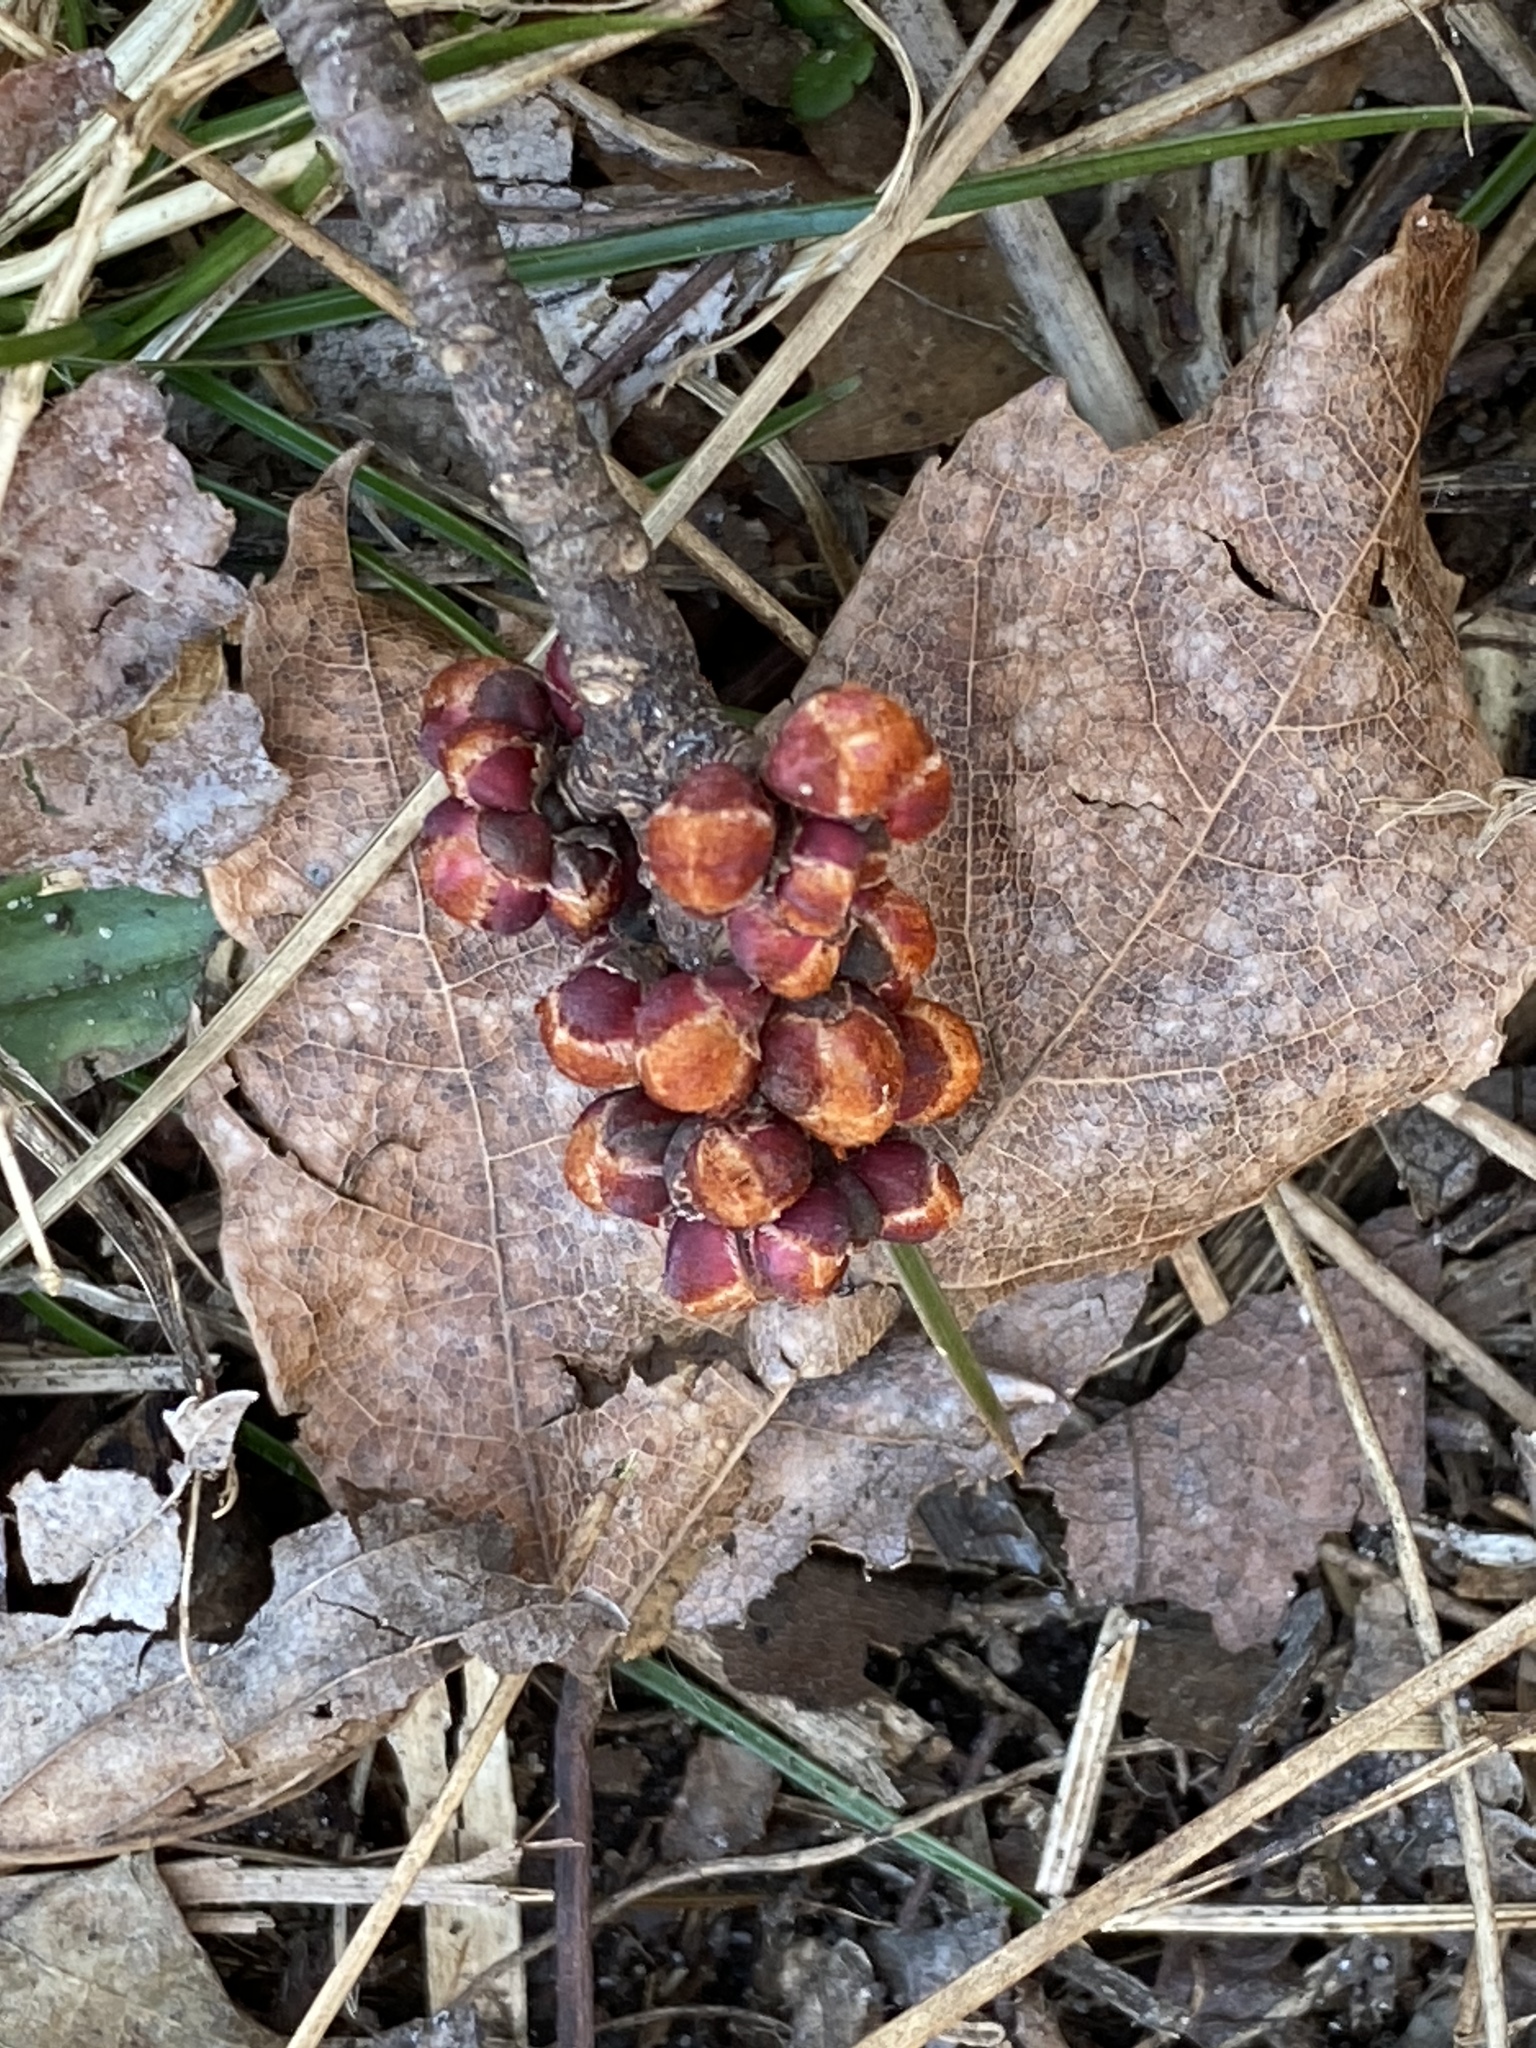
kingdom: Plantae
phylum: Tracheophyta
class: Magnoliopsida
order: Sapindales
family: Sapindaceae
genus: Acer
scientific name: Acer rubrum
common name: Red maple
